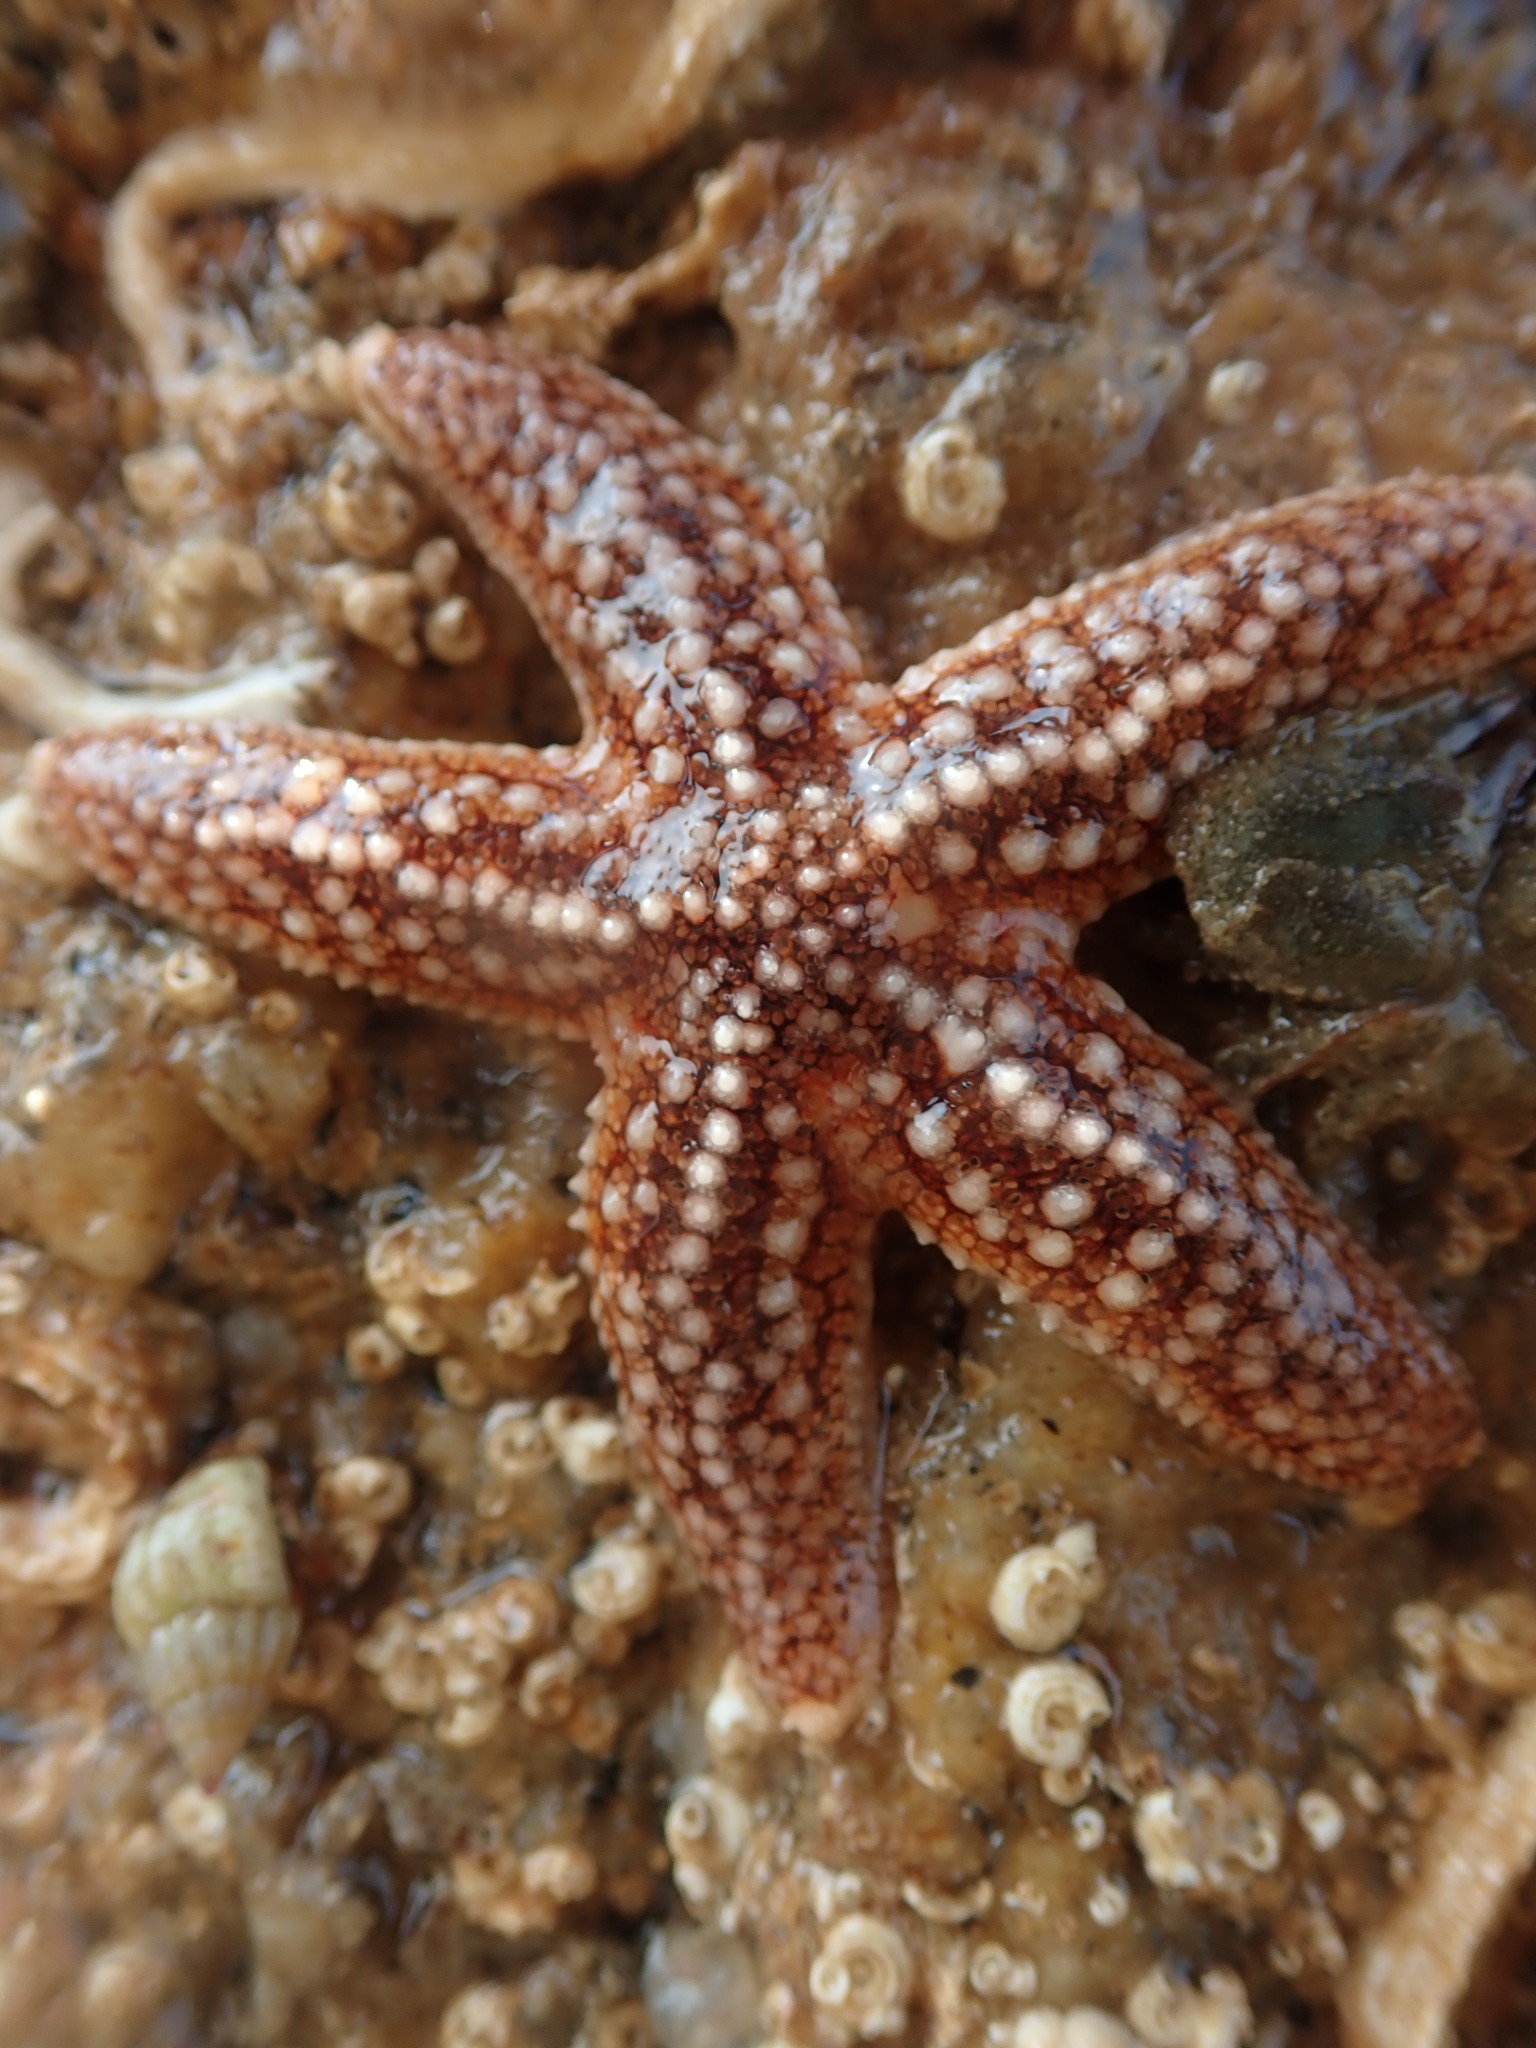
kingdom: Animalia
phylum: Echinodermata
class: Asteroidea
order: Forcipulatida
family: Asteriidae
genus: Asterias
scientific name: Asterias rubens
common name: Common starfish
